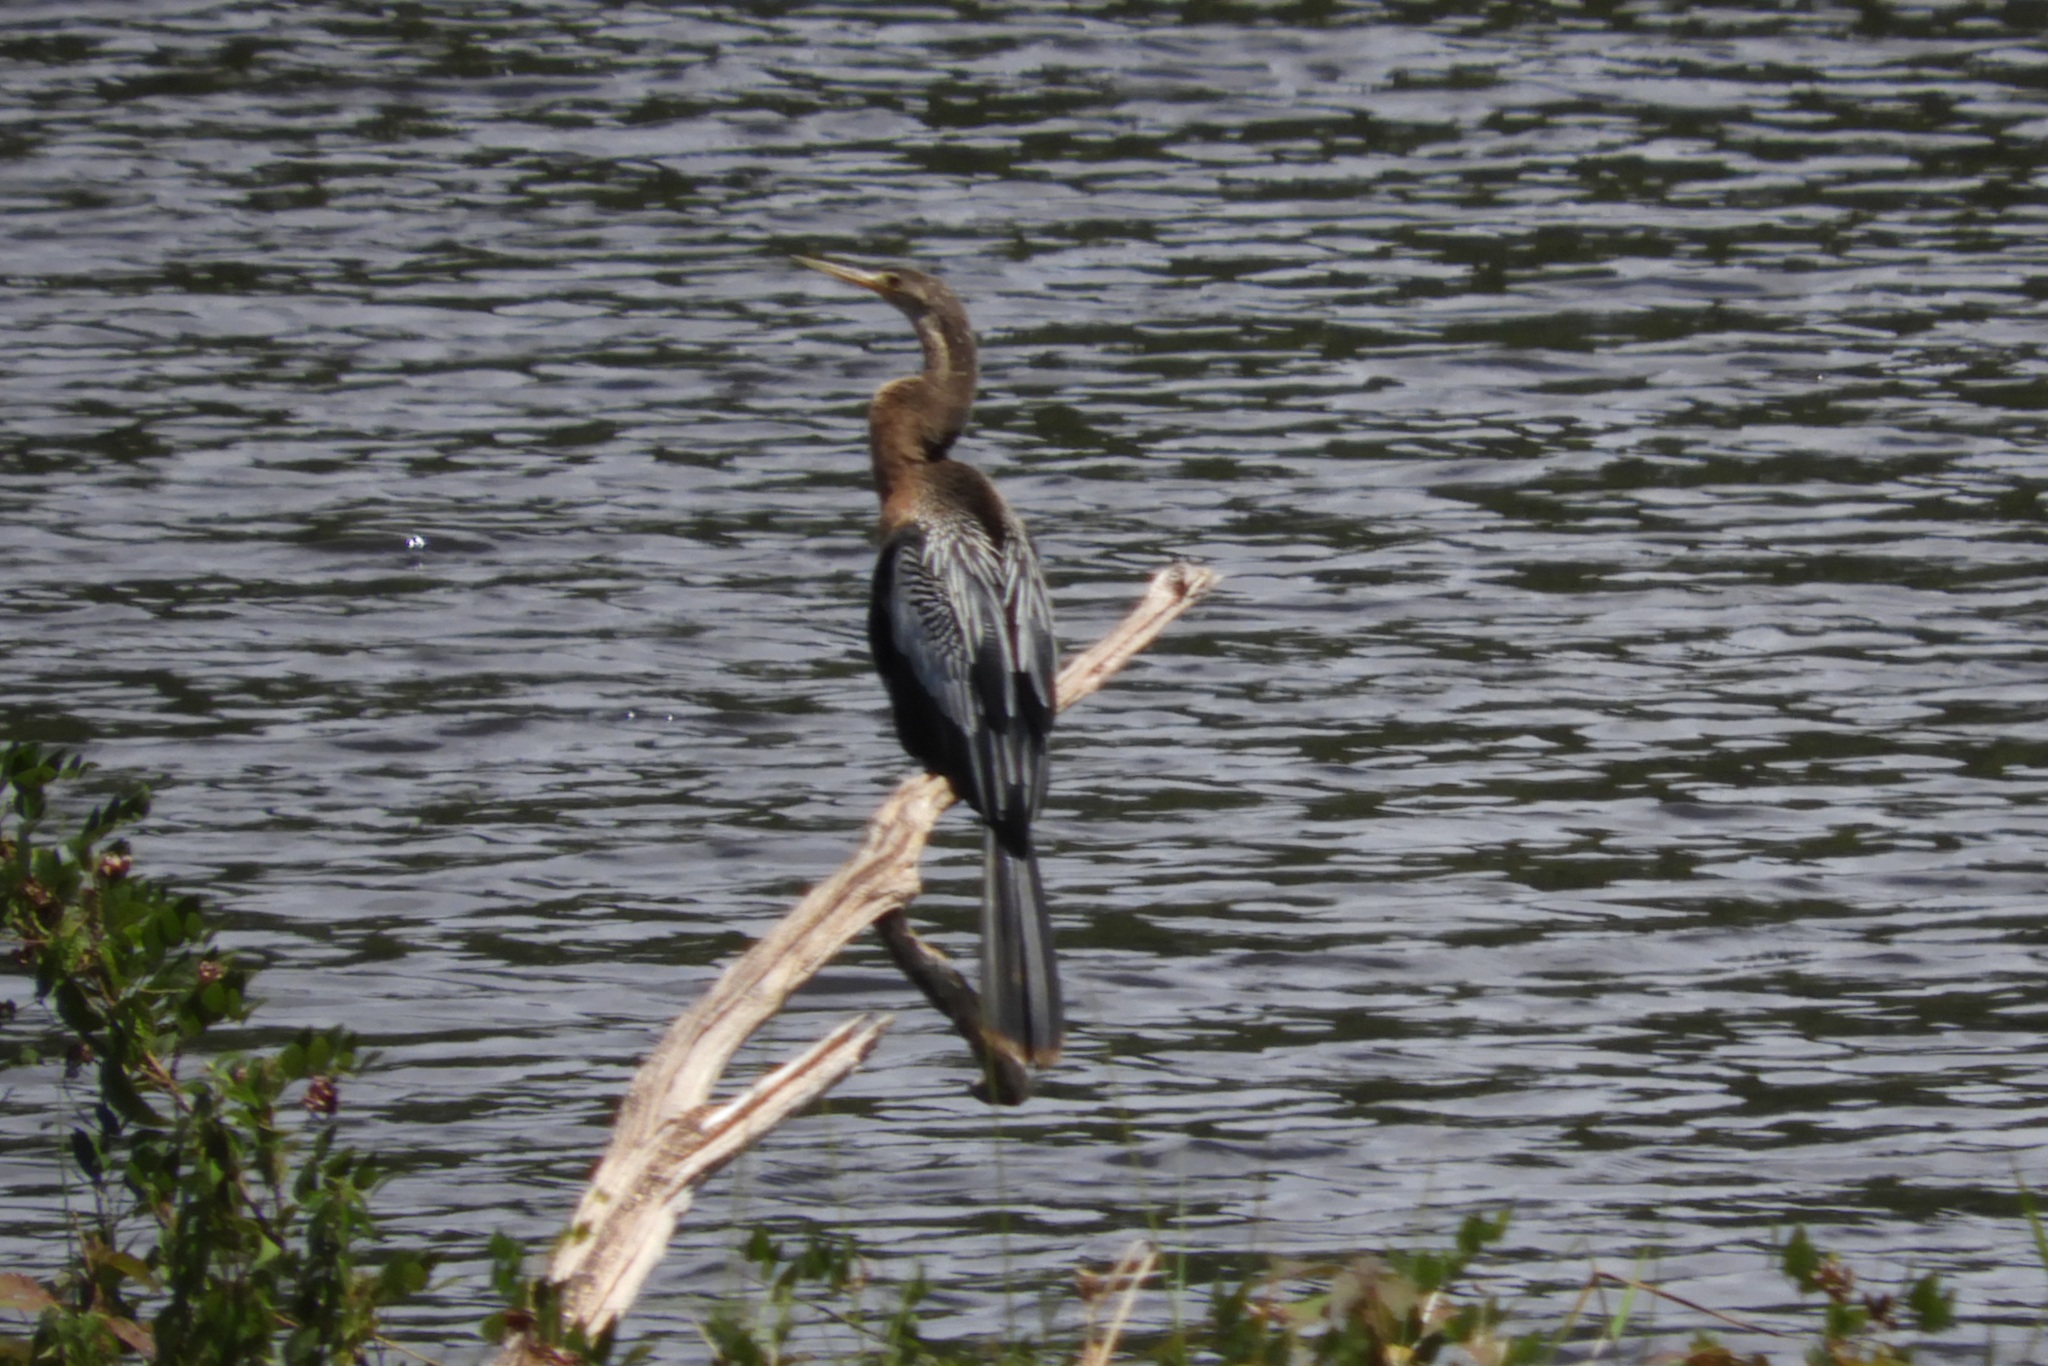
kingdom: Animalia
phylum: Chordata
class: Aves
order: Suliformes
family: Anhingidae
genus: Anhinga
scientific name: Anhinga anhinga
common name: Anhinga
